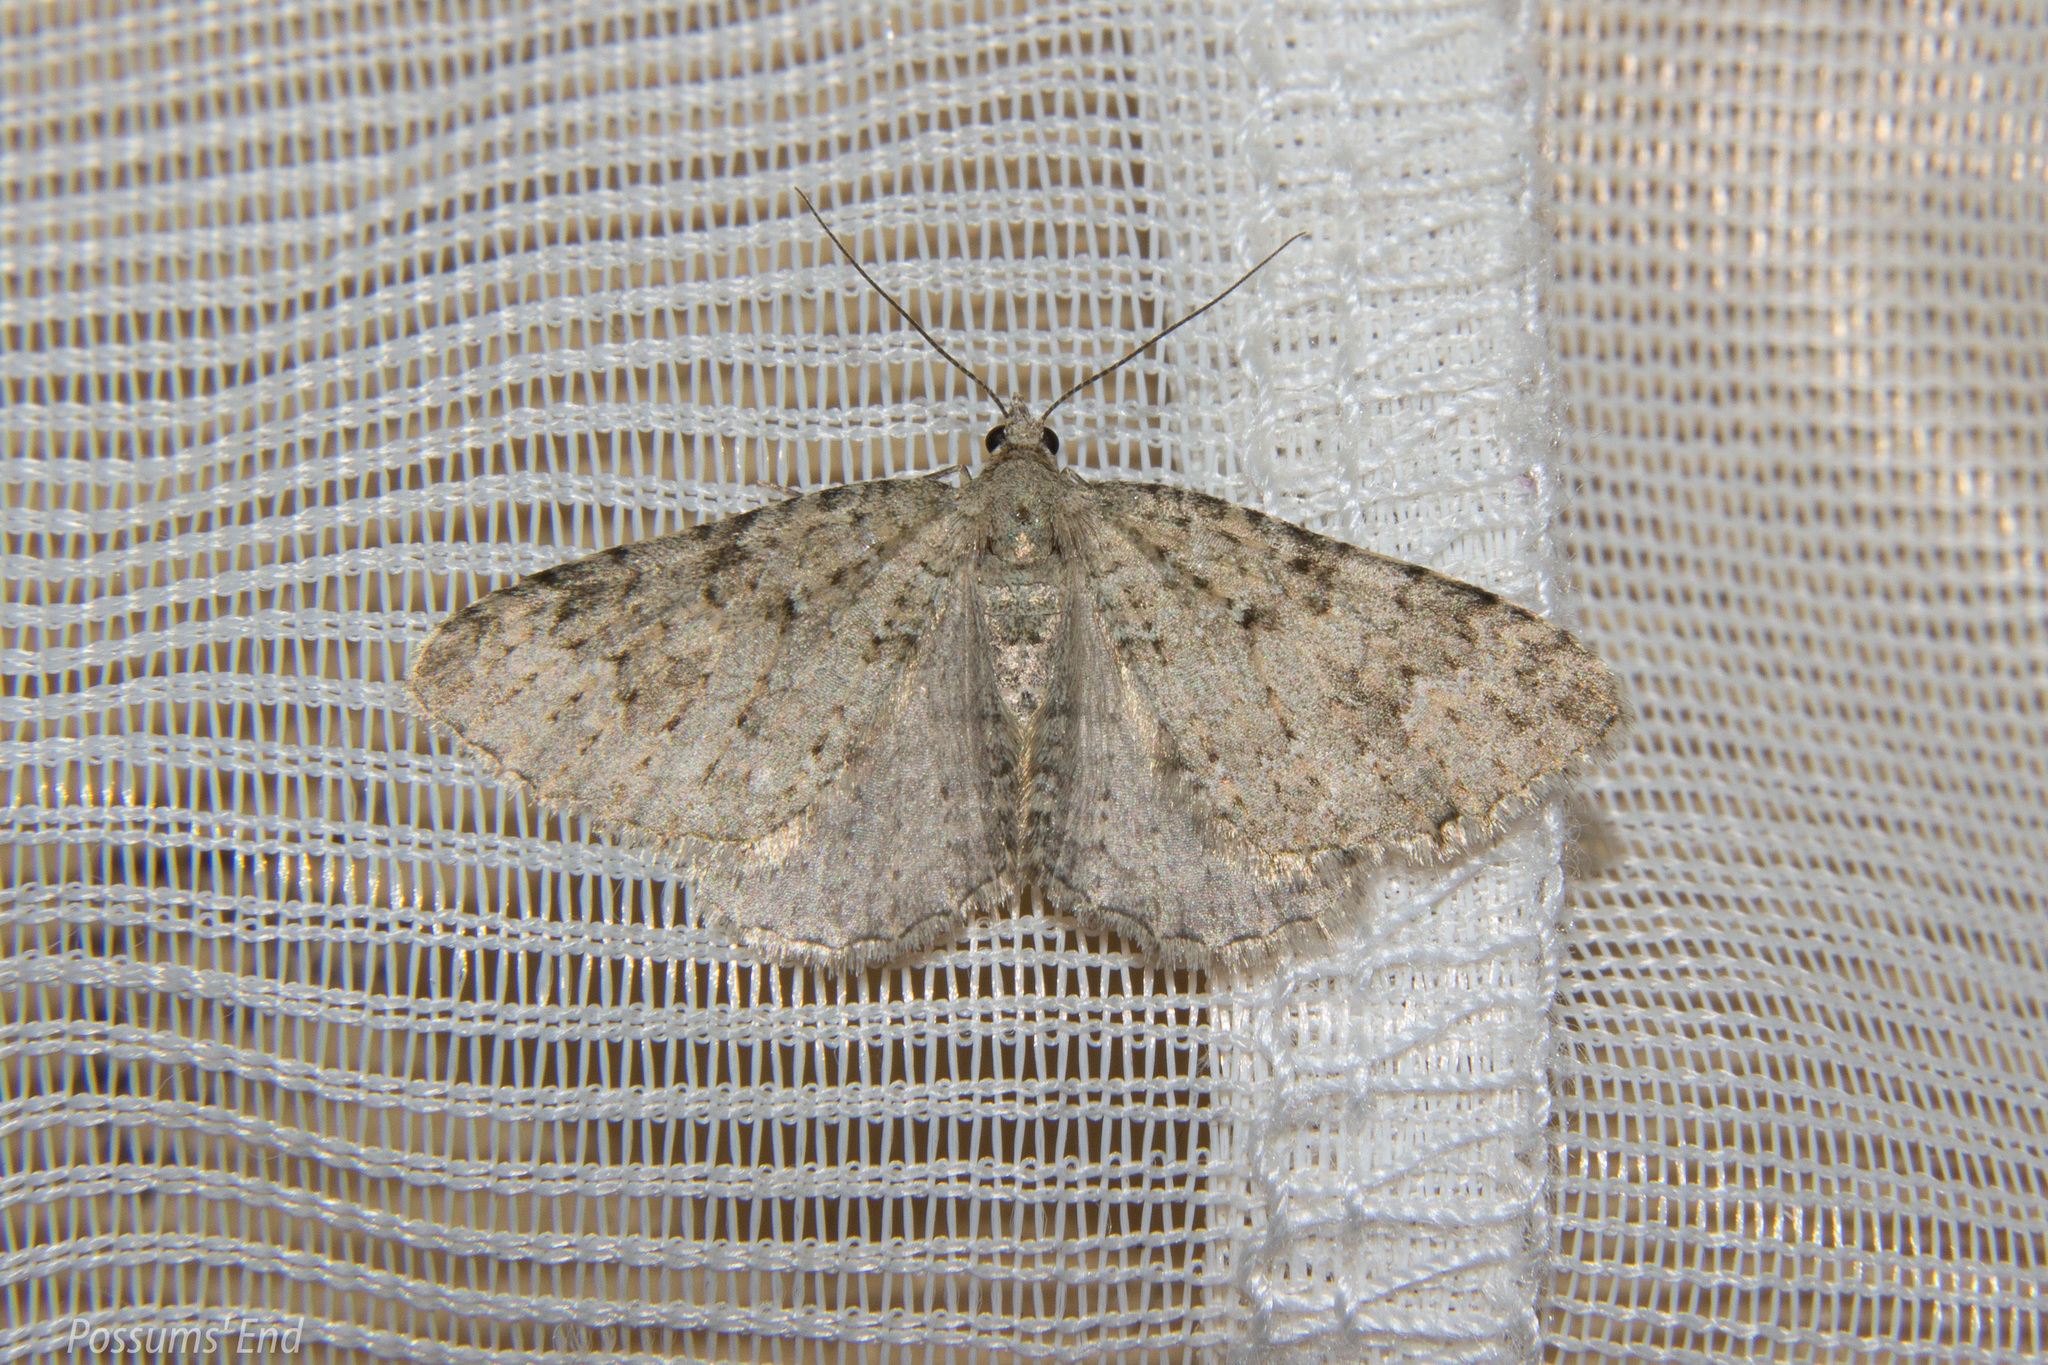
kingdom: Animalia
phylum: Arthropoda
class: Insecta
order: Lepidoptera
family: Geometridae
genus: Helastia
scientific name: Helastia corcularia
